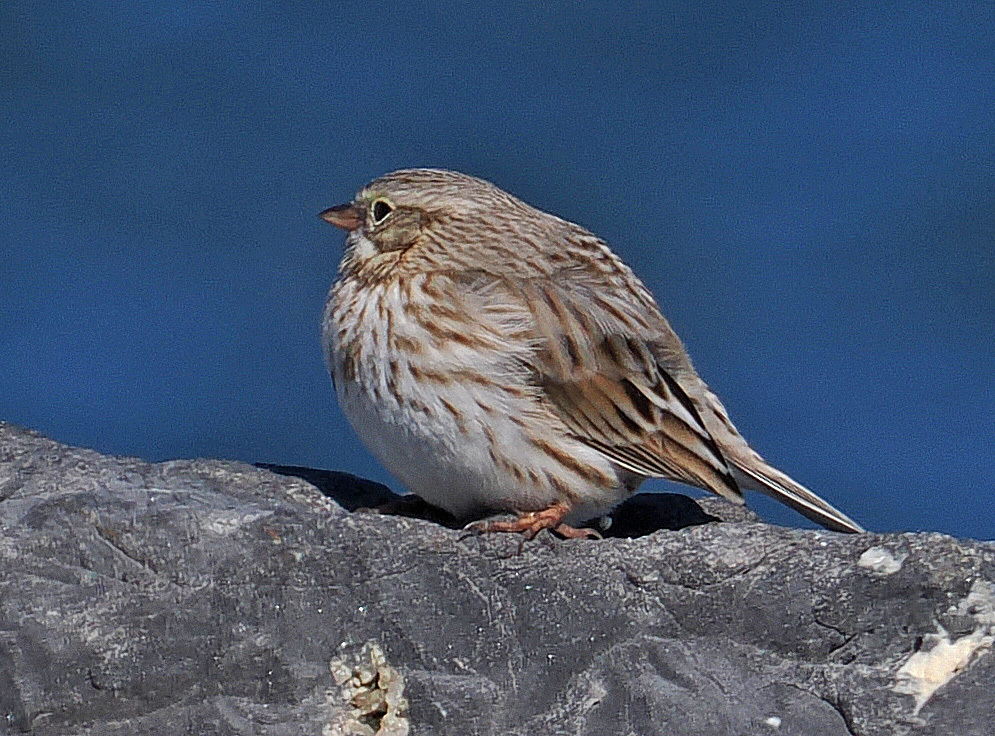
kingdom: Animalia
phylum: Chordata
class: Aves
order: Passeriformes
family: Passerellidae
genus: Passerculus
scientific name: Passerculus sandwichensis
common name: Savannah sparrow
